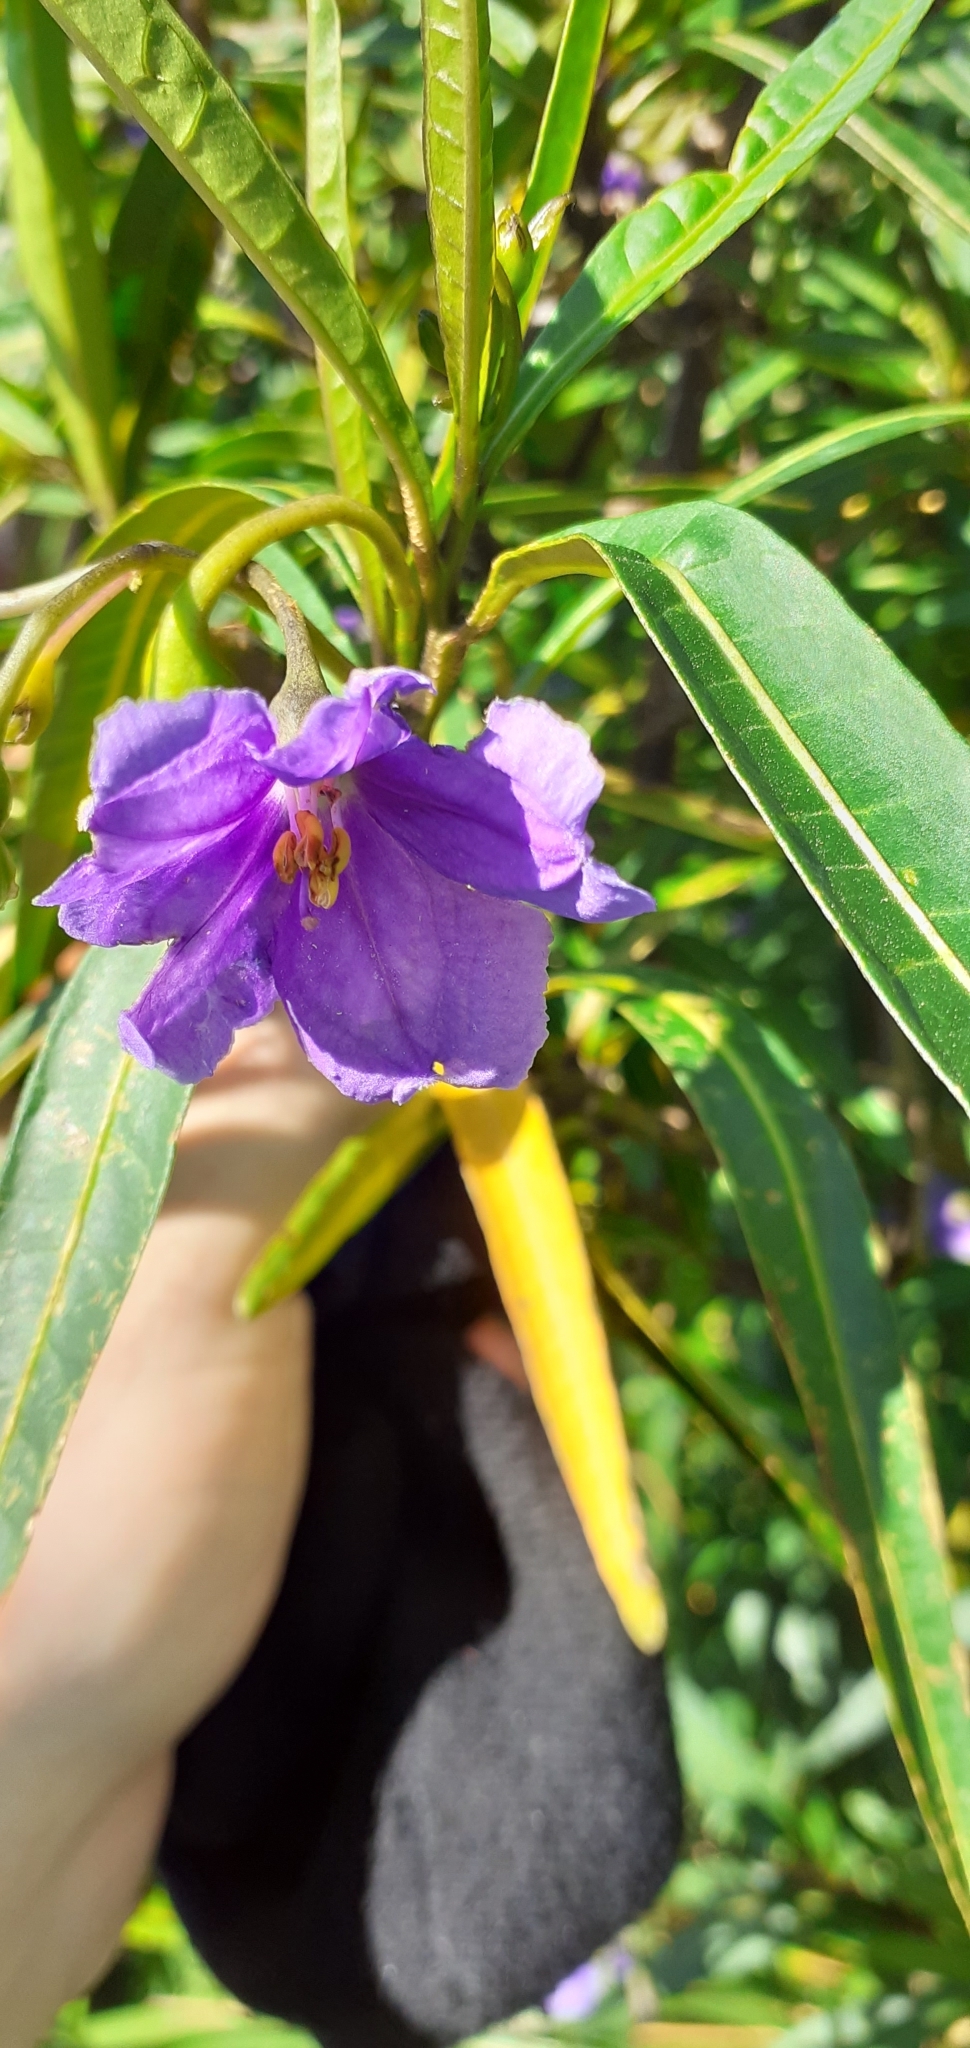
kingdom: Plantae
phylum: Tracheophyta
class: Magnoliopsida
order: Solanales
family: Solanaceae
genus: Solanum
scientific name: Solanum laciniatum
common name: Kangaroo-apple
